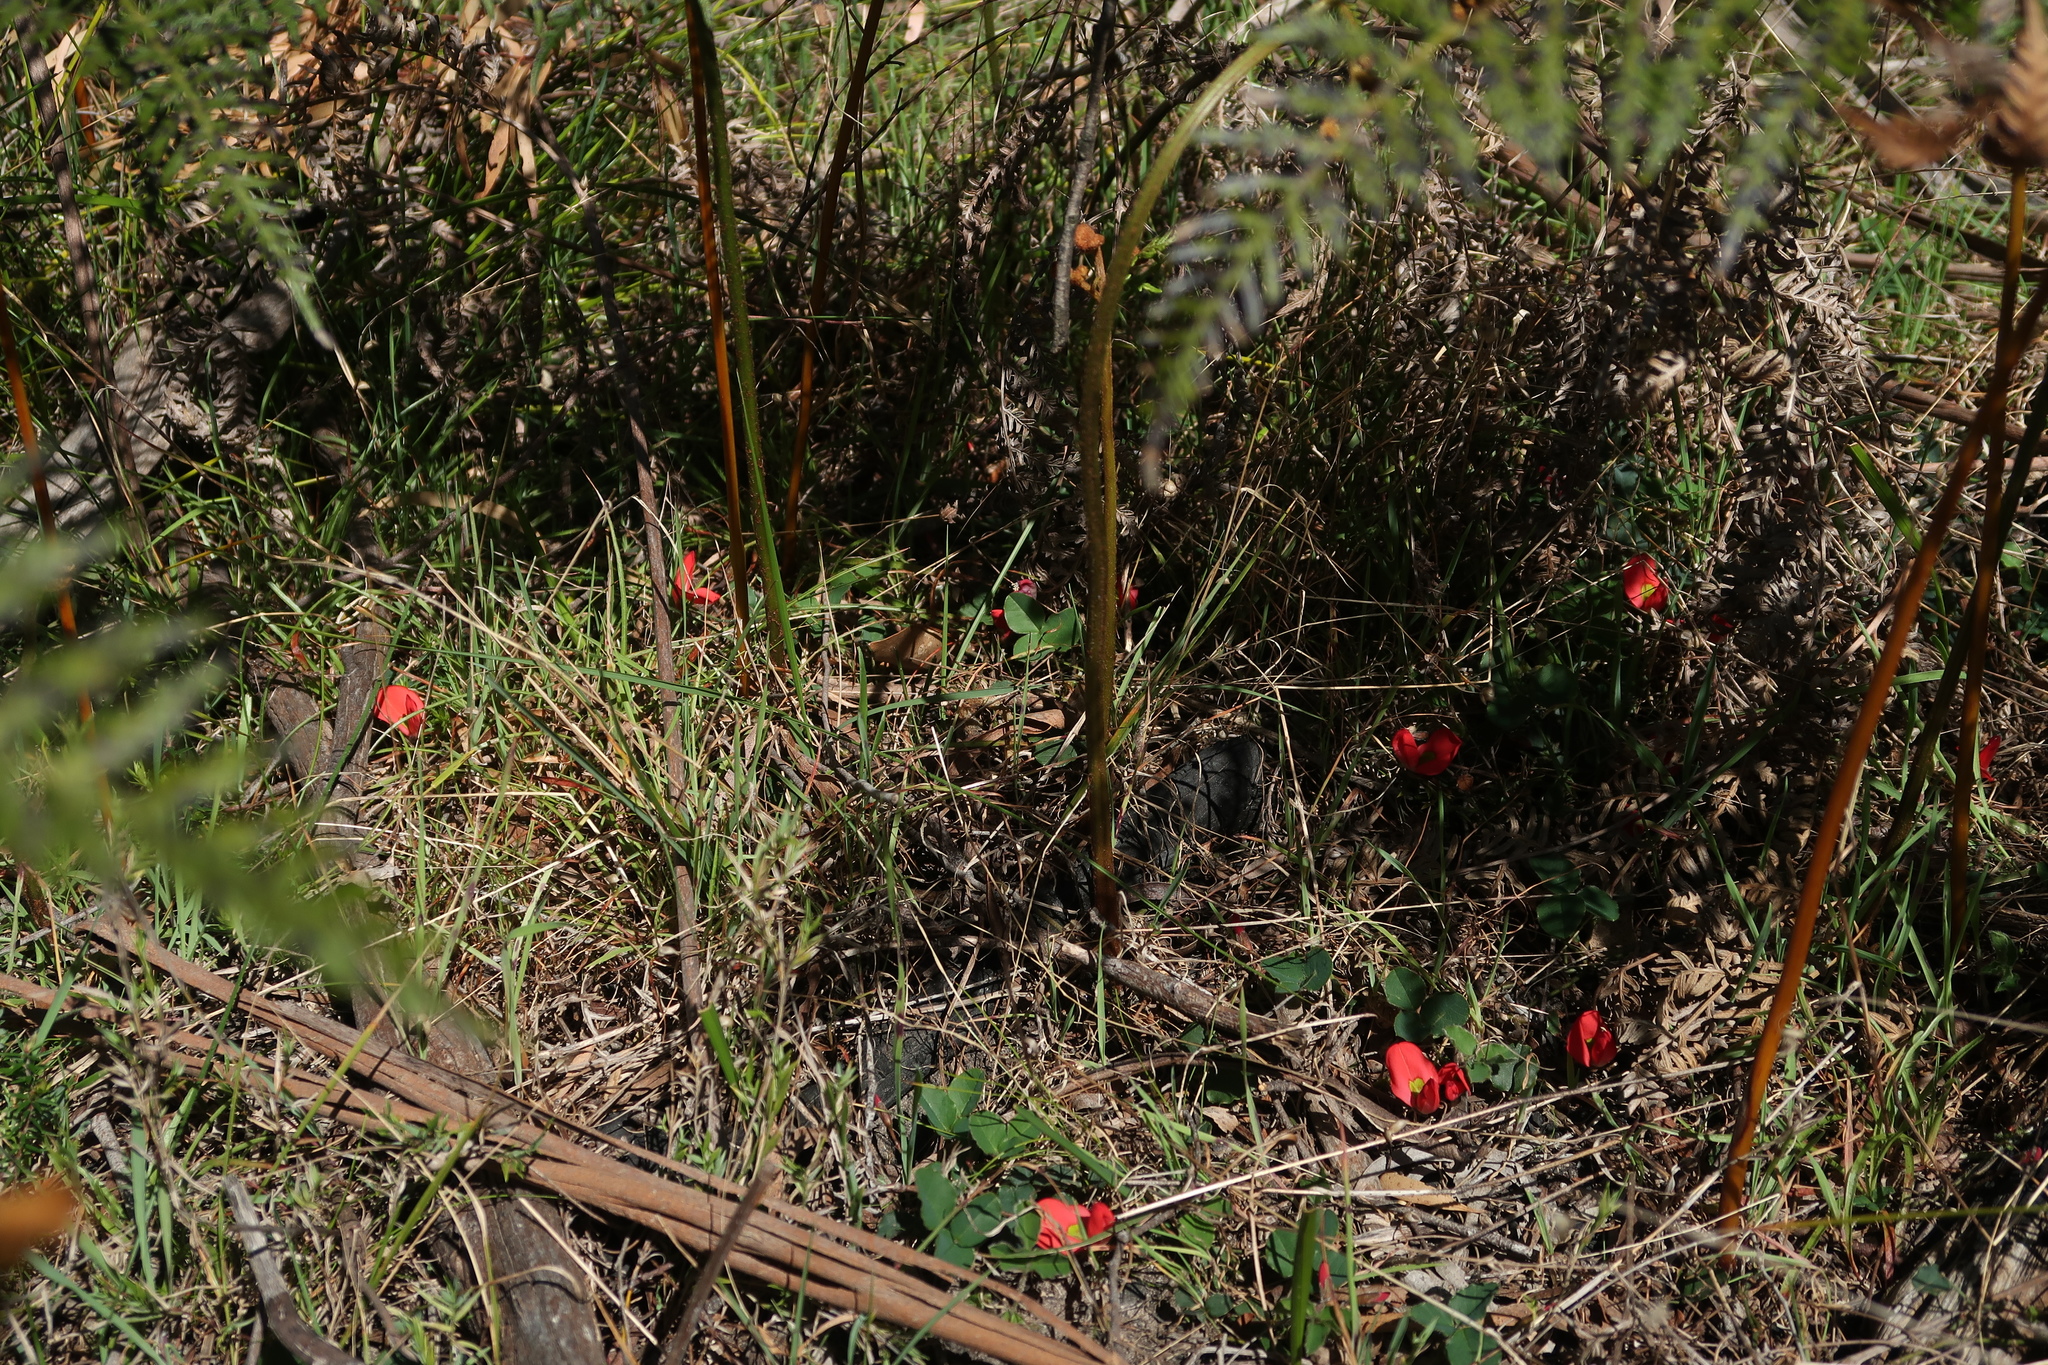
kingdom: Plantae
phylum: Tracheophyta
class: Magnoliopsida
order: Fabales
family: Fabaceae
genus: Kennedia
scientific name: Kennedia prostrata
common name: Running-postman
